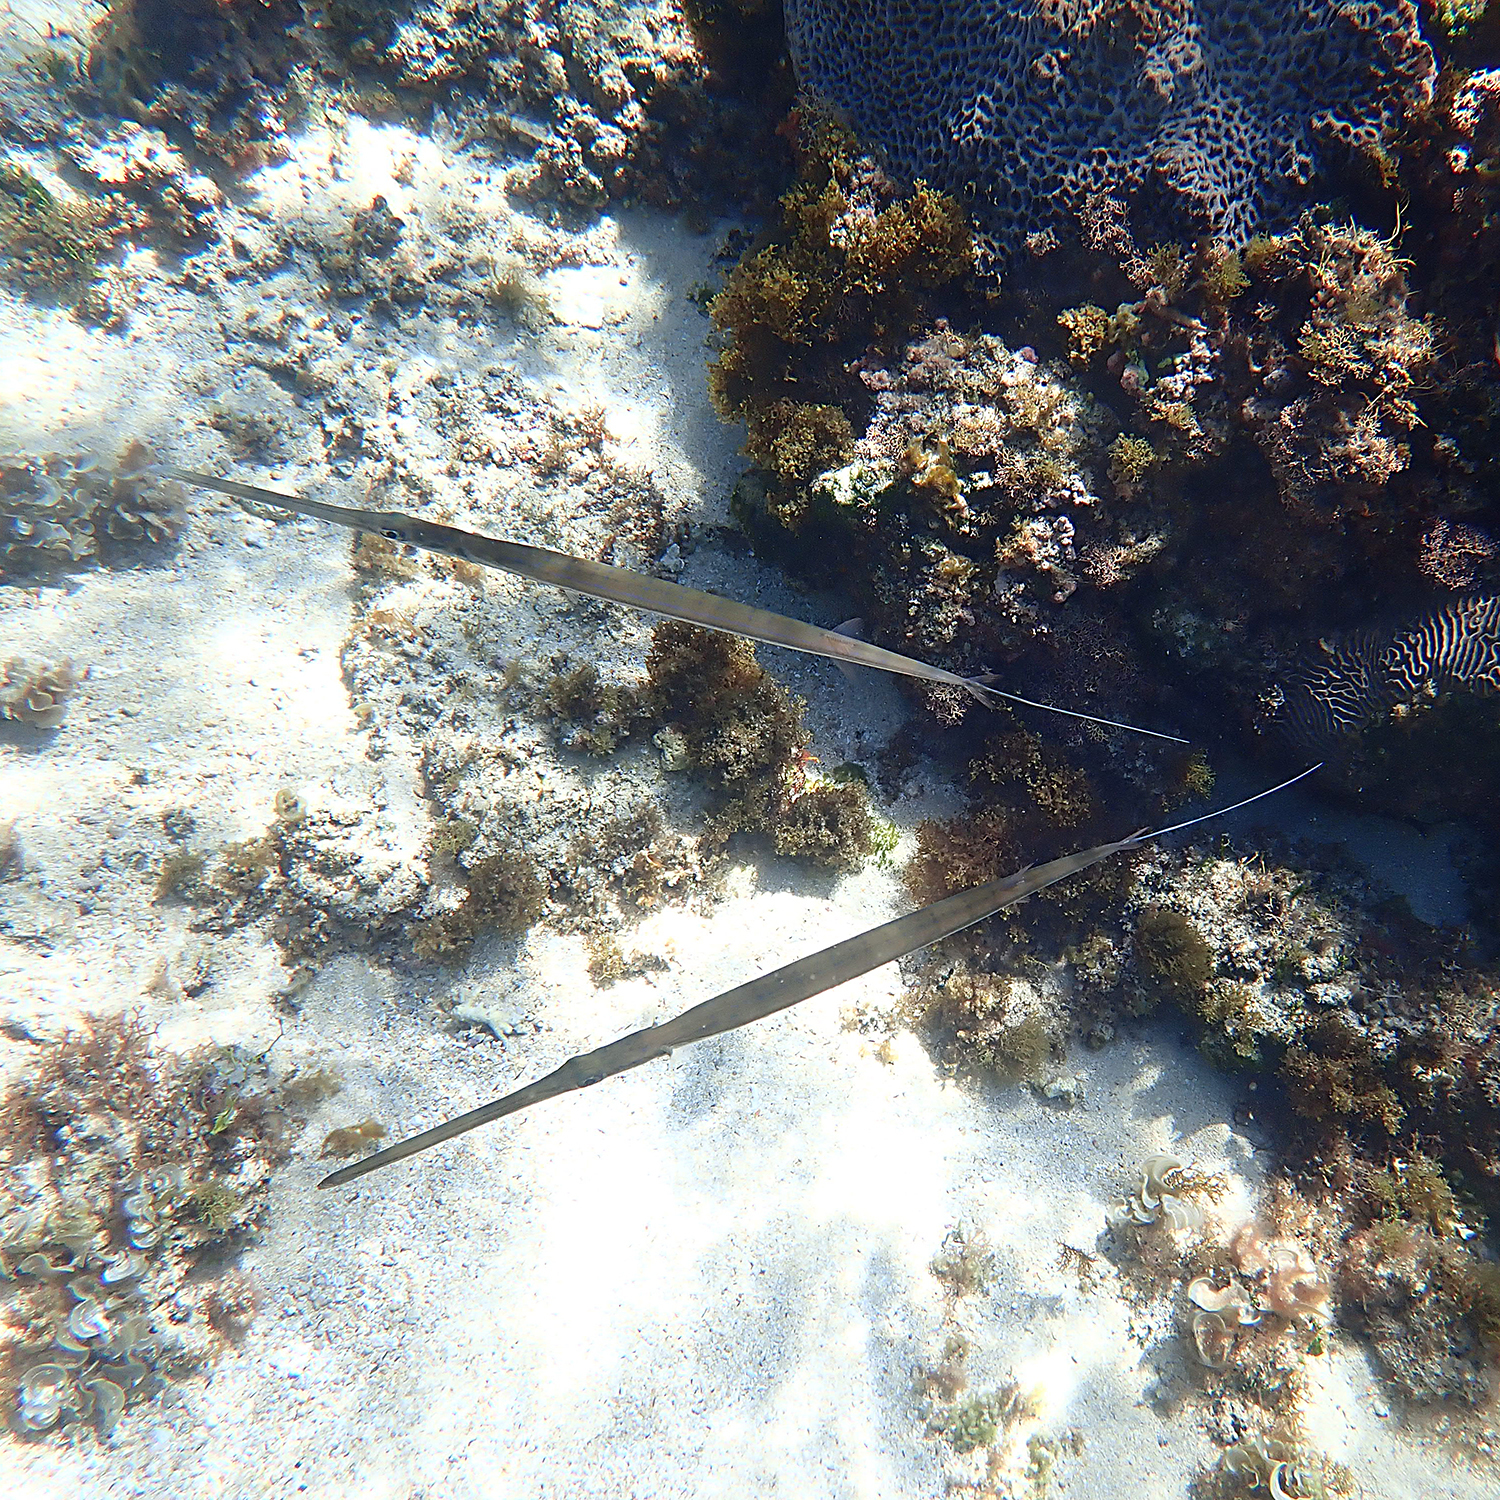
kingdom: Animalia
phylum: Chordata
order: Syngnathiformes
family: Fistulariidae
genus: Fistularia
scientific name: Fistularia commersonii
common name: Bluespotted cornetfish
